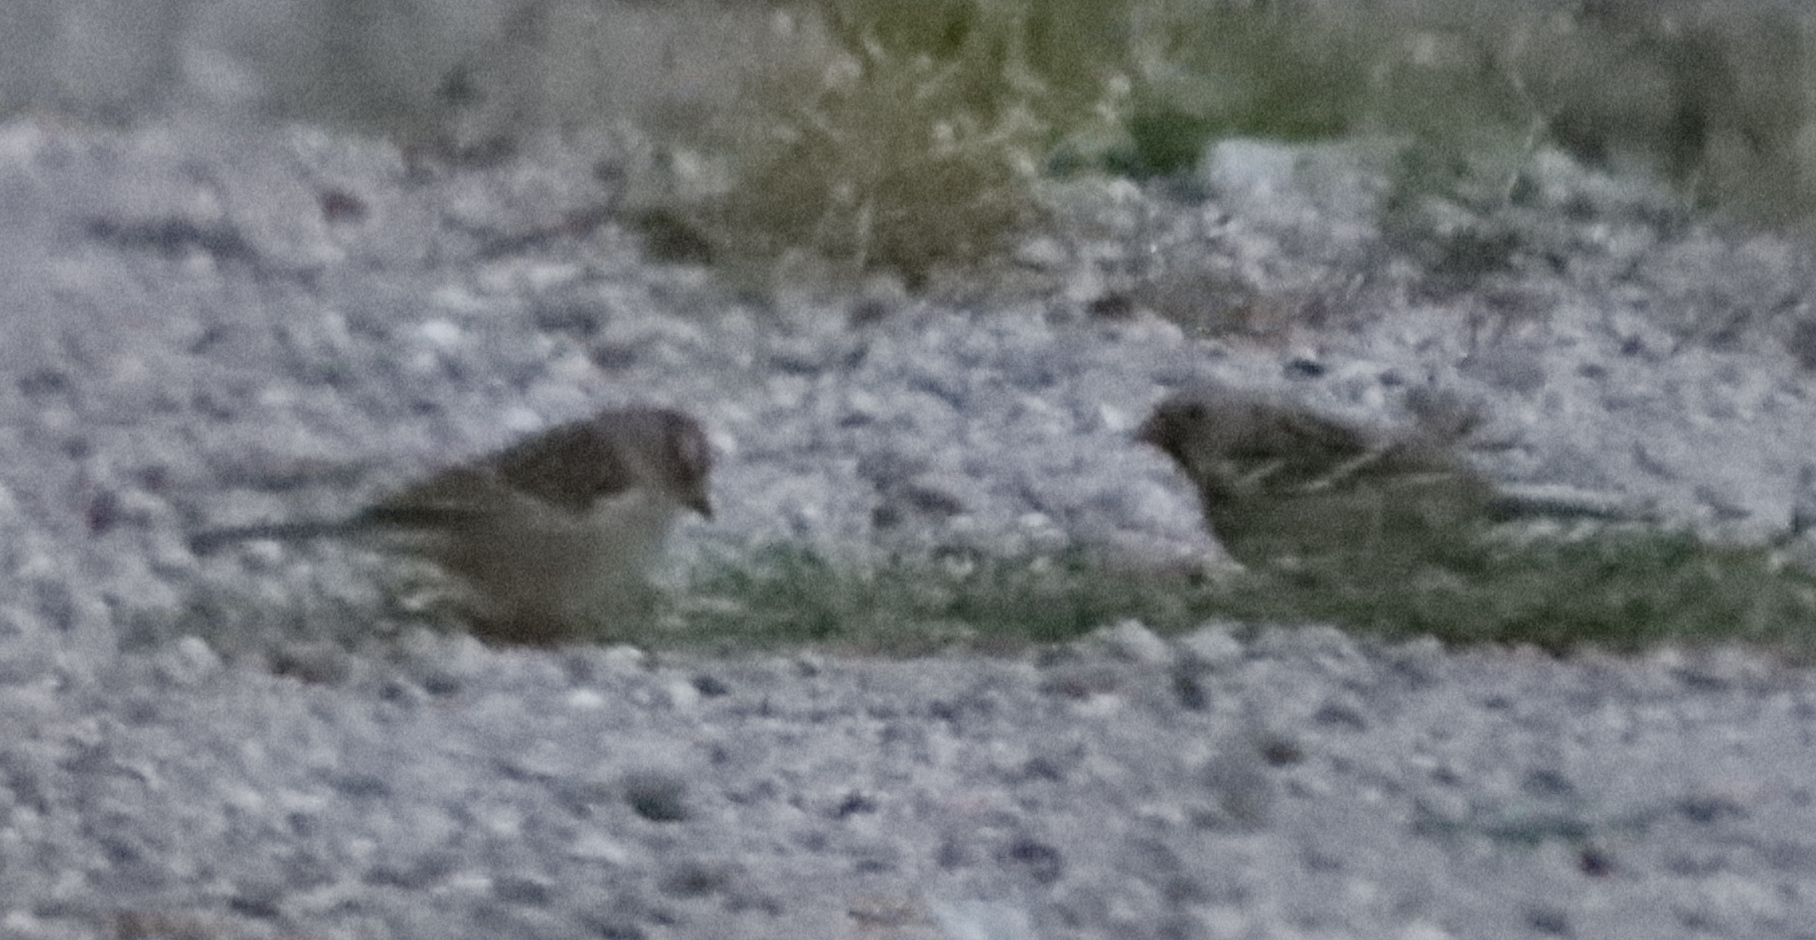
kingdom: Animalia
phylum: Chordata
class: Aves
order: Passeriformes
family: Passerellidae
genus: Zonotrichia
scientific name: Zonotrichia leucophrys
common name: White-crowned sparrow
